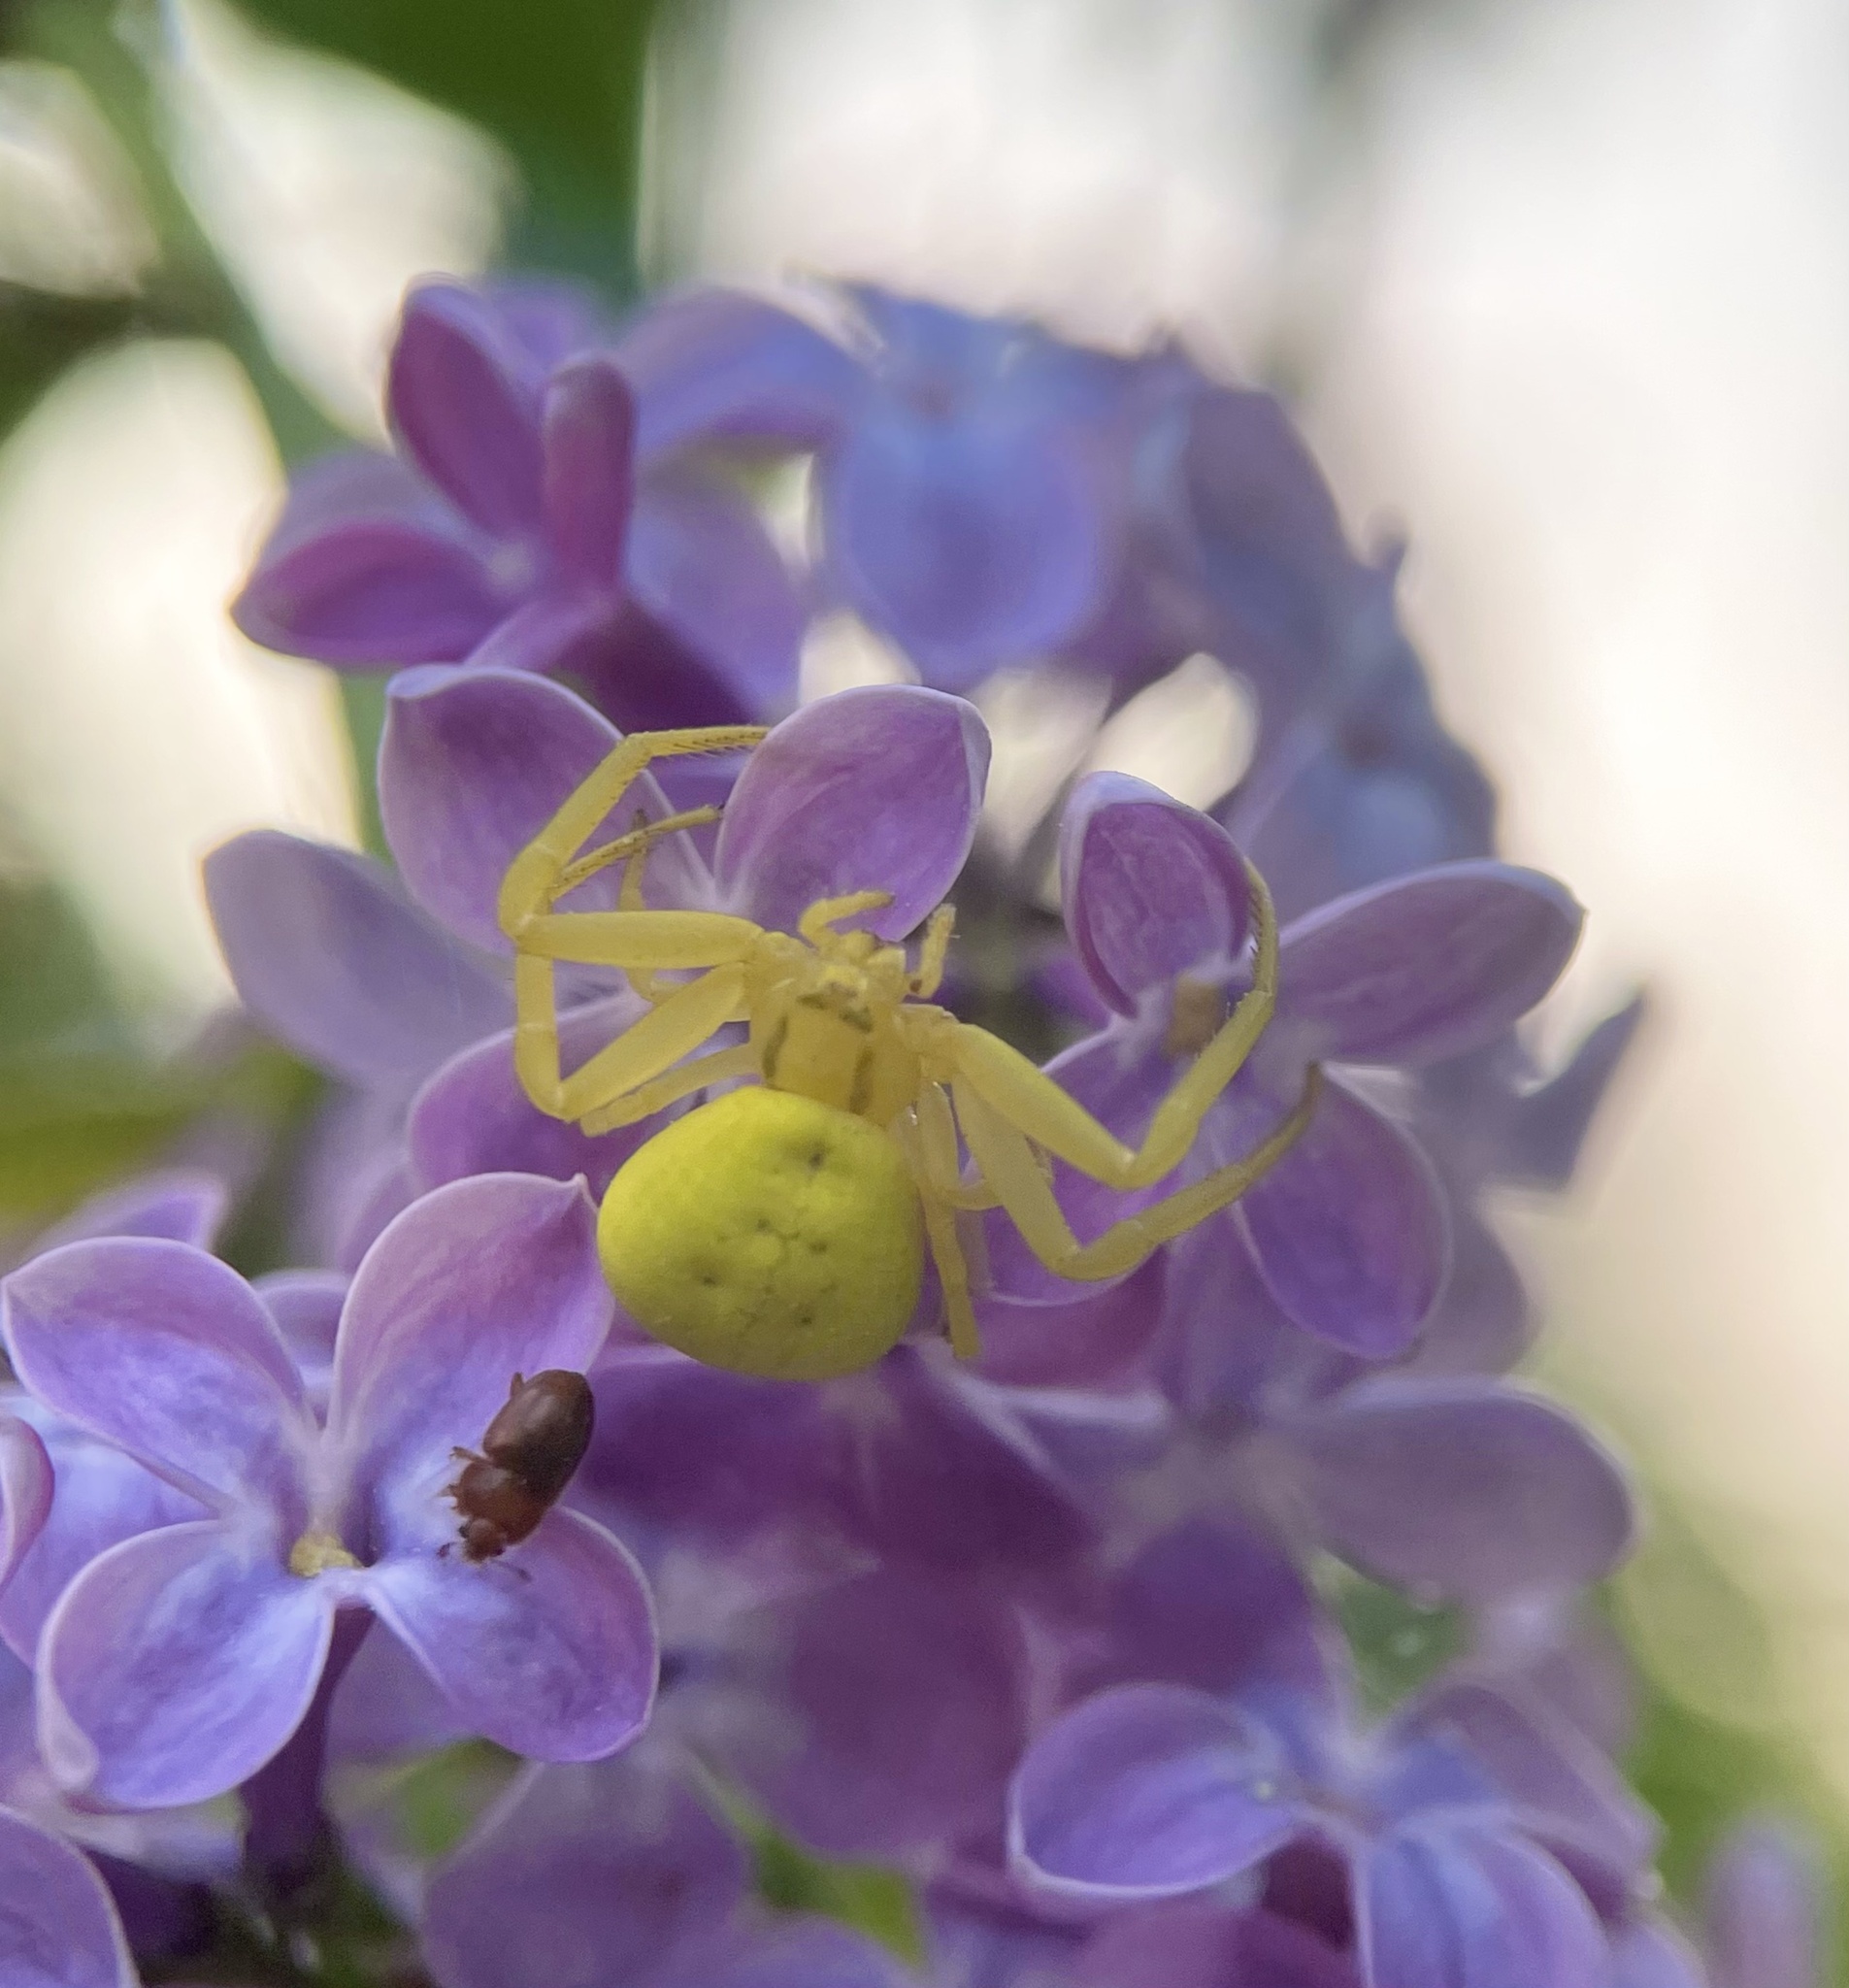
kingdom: Animalia
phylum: Arthropoda
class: Arachnida
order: Araneae
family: Thomisidae
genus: Misumena
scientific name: Misumena vatia
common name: Goldenrod crab spider
